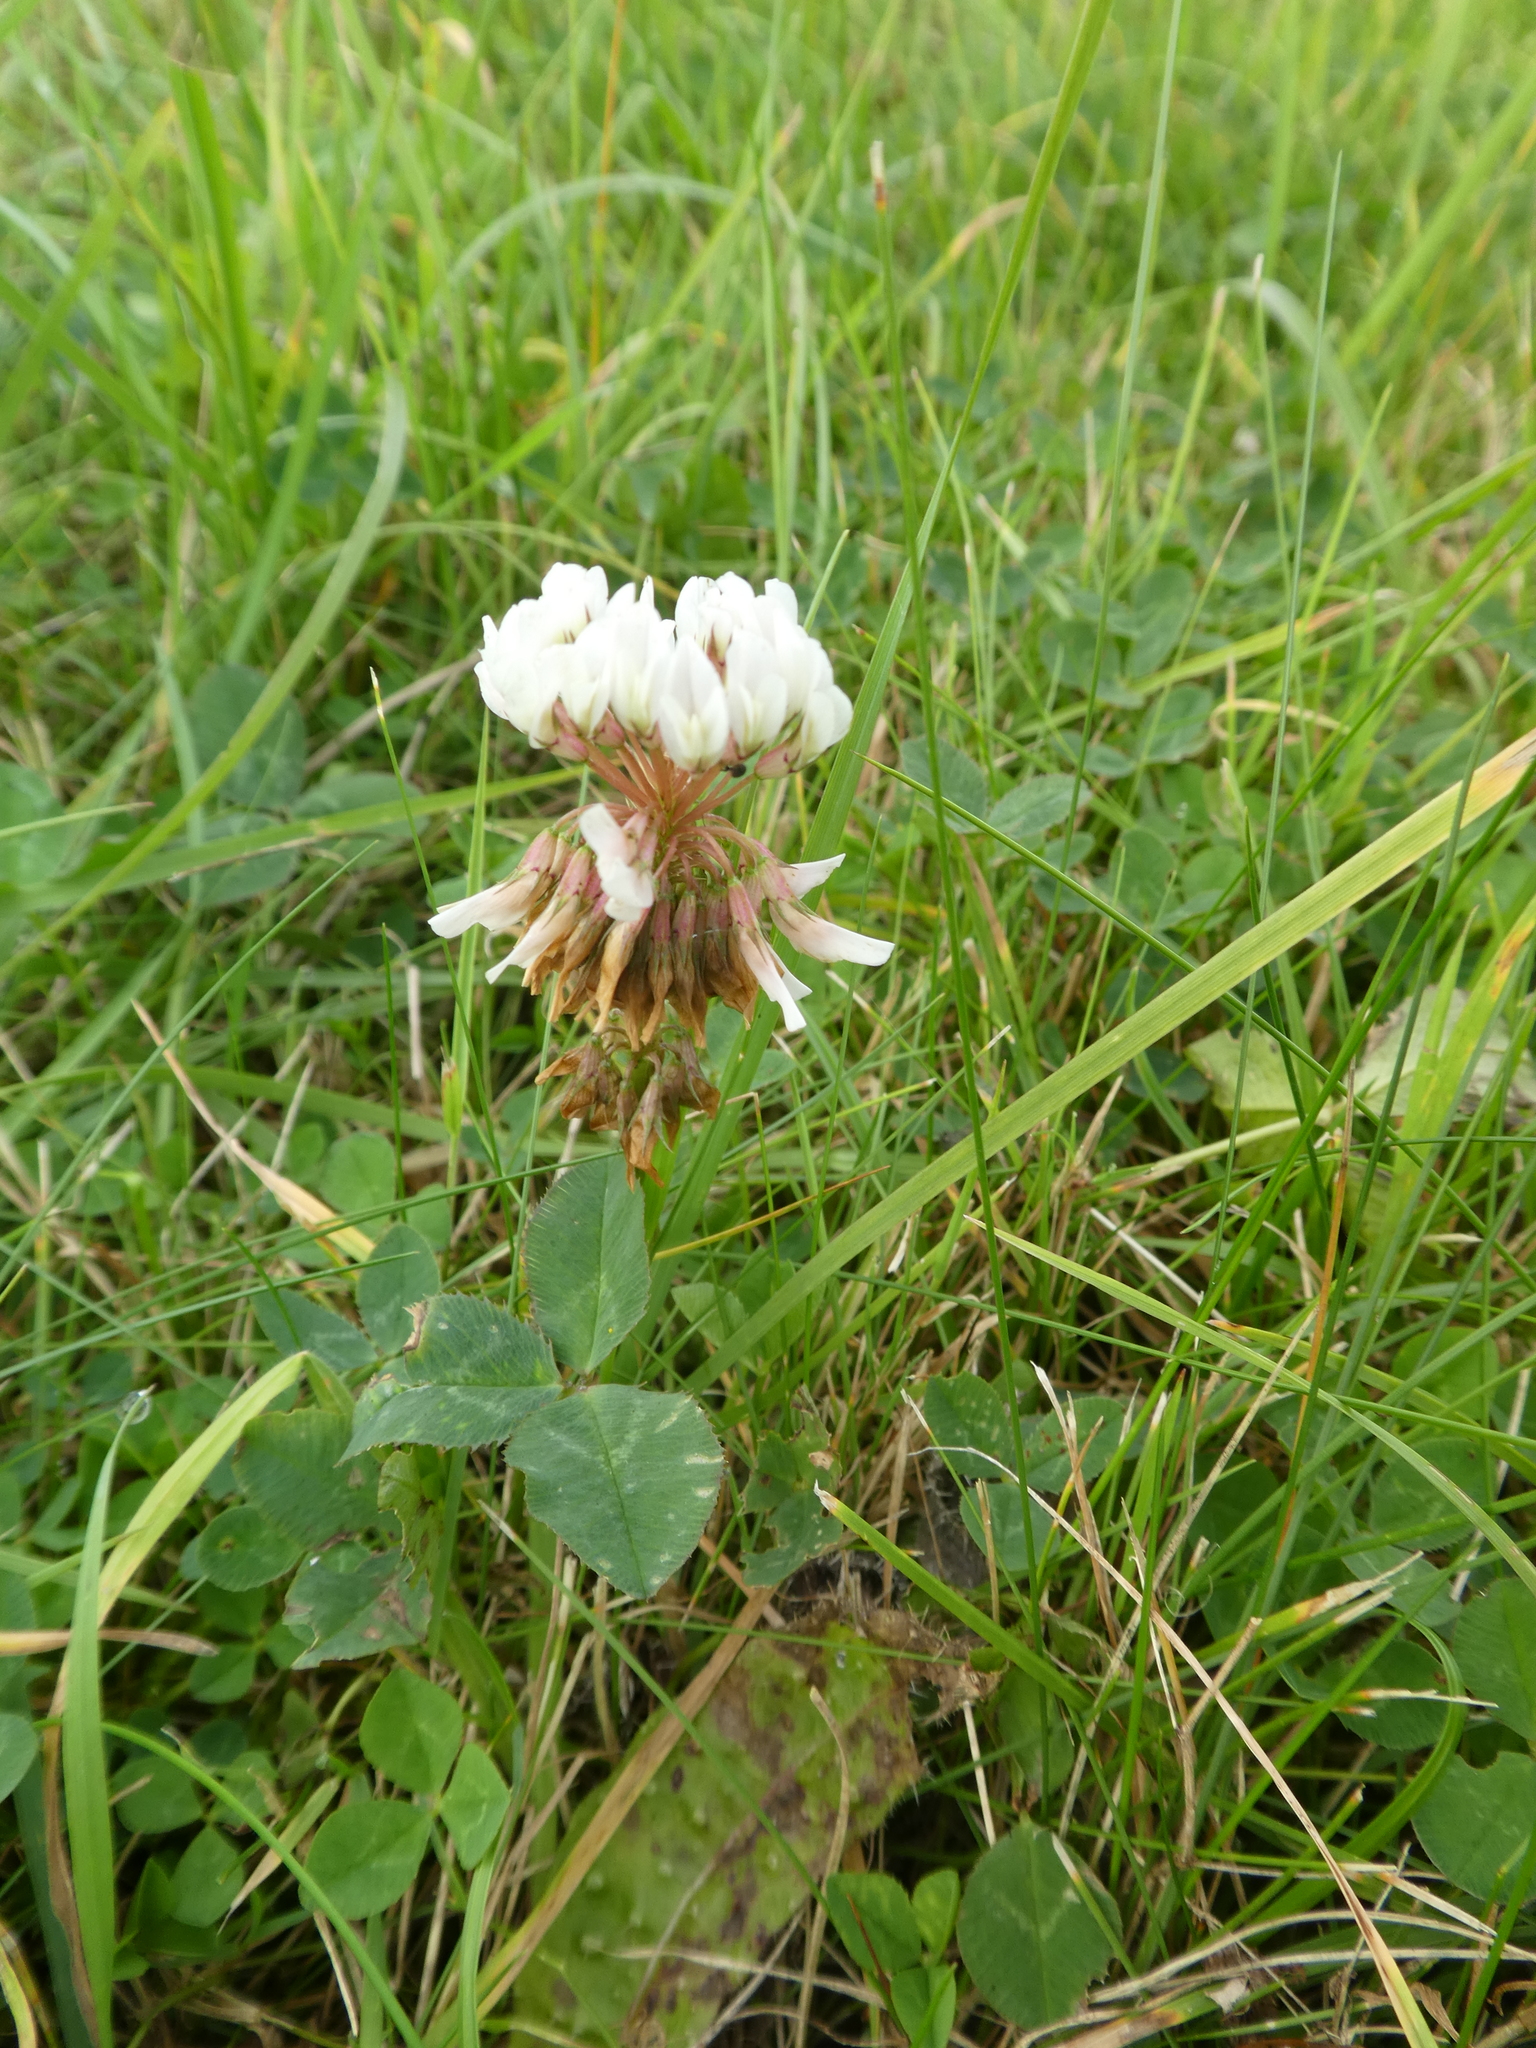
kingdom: Plantae
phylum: Tracheophyta
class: Magnoliopsida
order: Fabales
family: Fabaceae
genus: Trifolium
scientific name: Trifolium repens
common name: White clover
